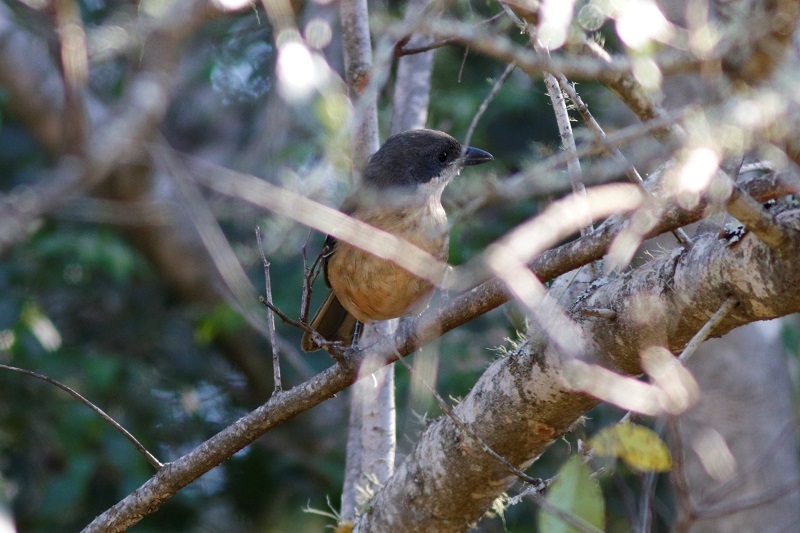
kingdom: Animalia
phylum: Chordata
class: Aves
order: Passeriformes
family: Malaconotidae
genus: Laniarius
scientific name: Laniarius ferrugineus
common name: Southern boubou
